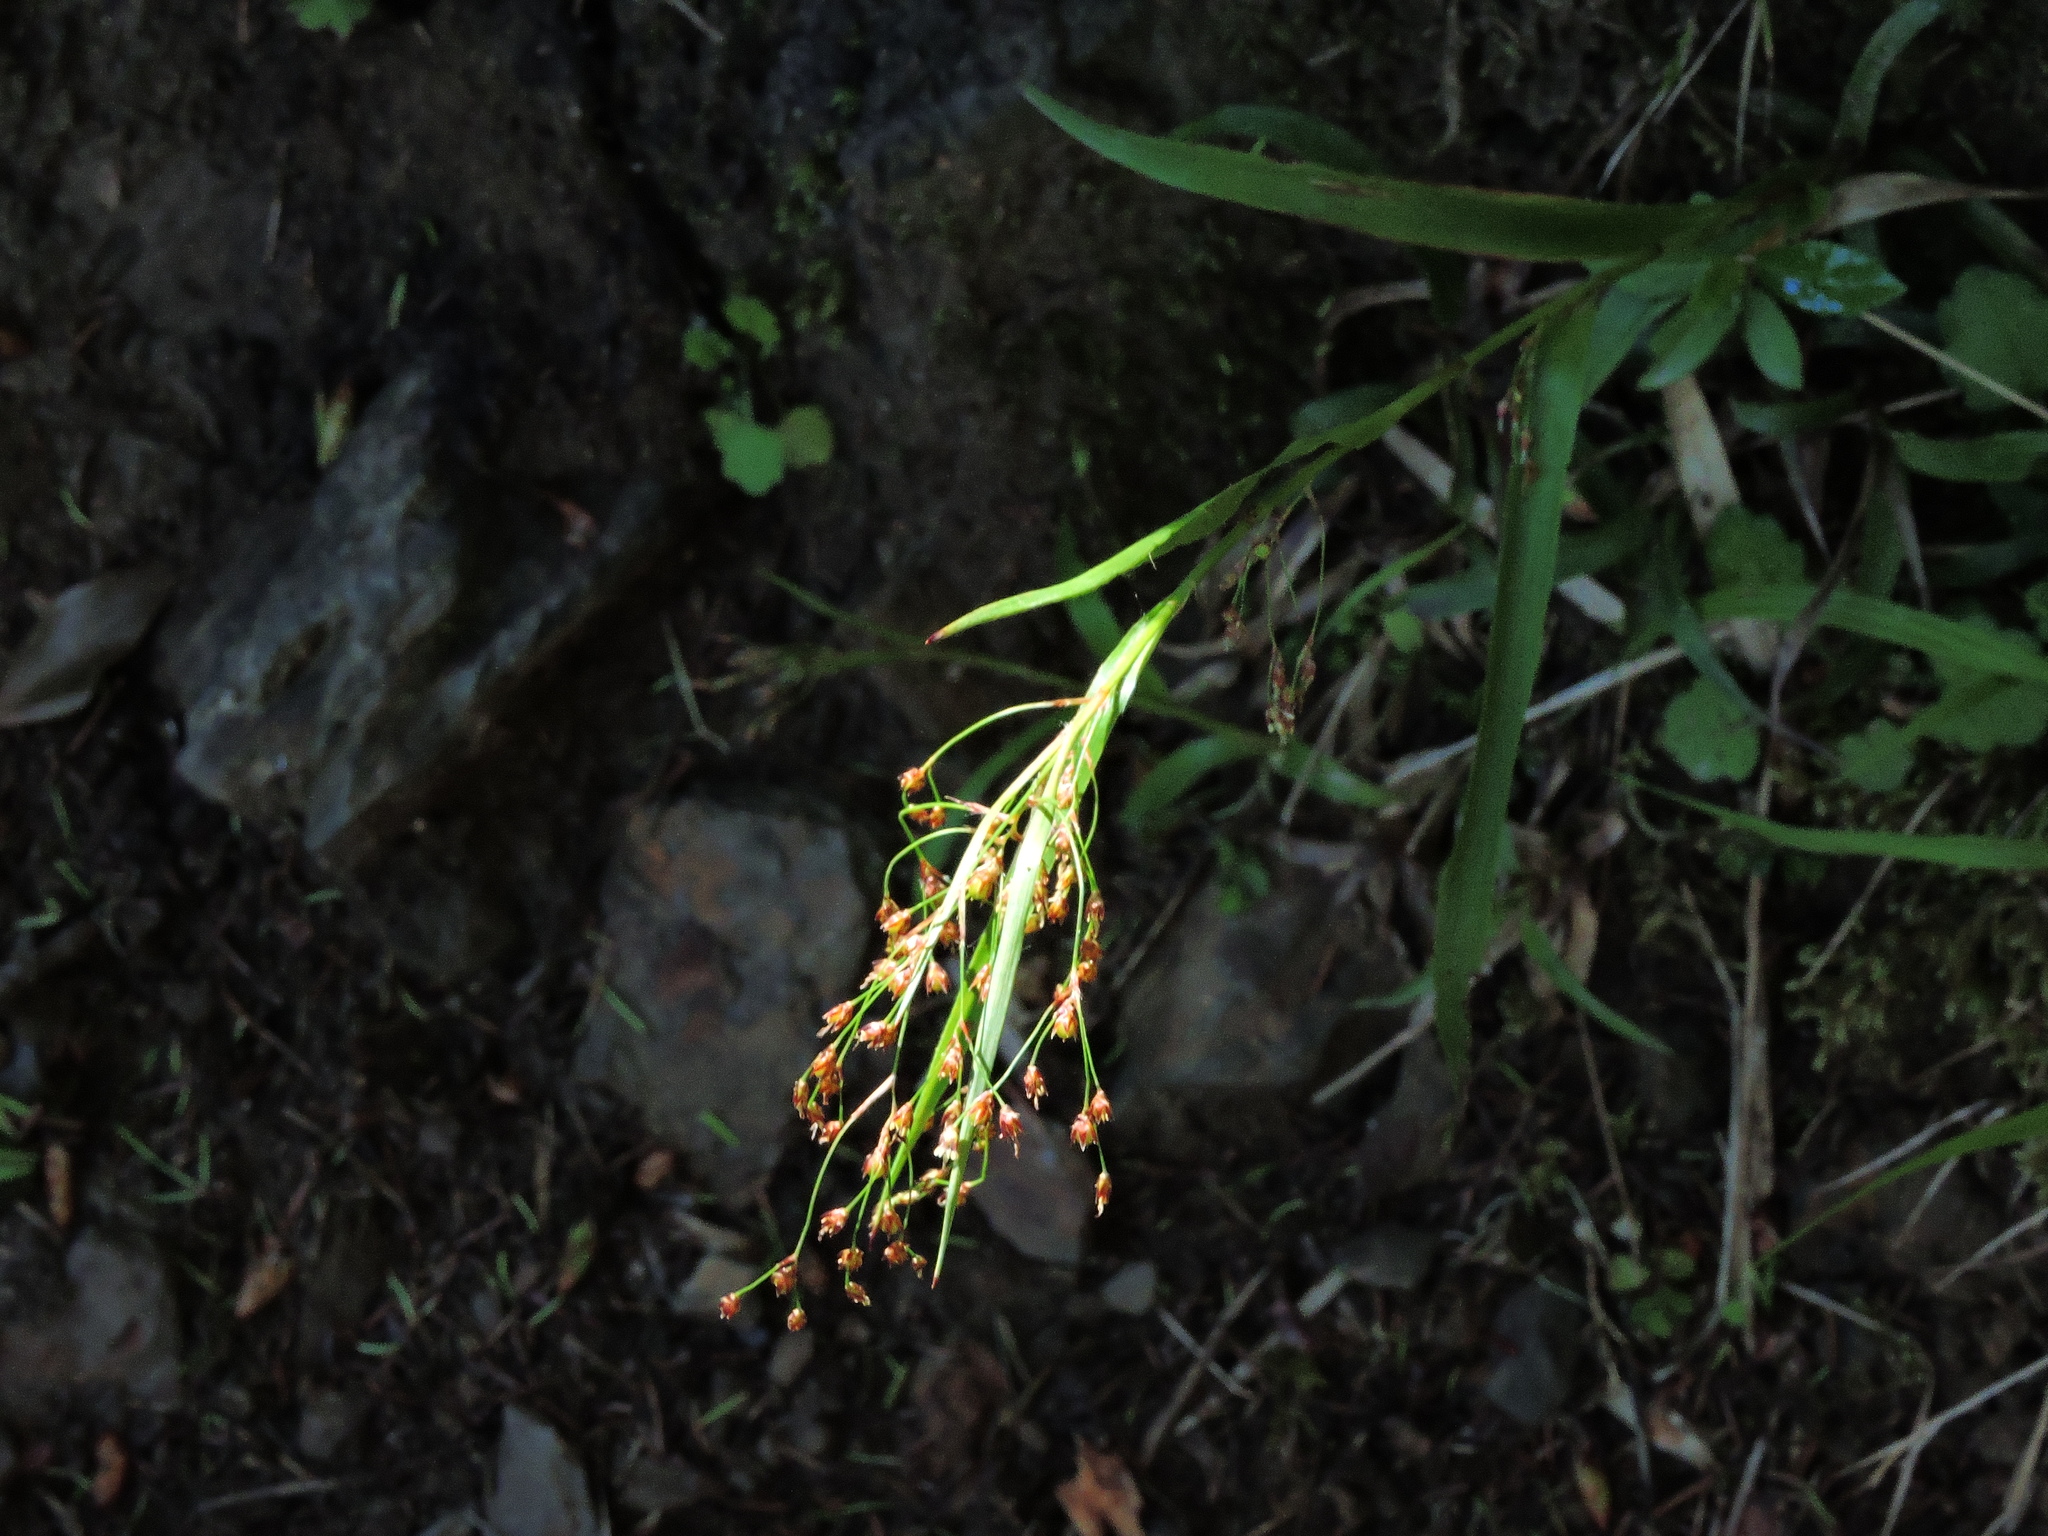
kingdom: Plantae
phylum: Tracheophyta
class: Liliopsida
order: Poales
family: Juncaceae
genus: Luzula
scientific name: Luzula effusa
